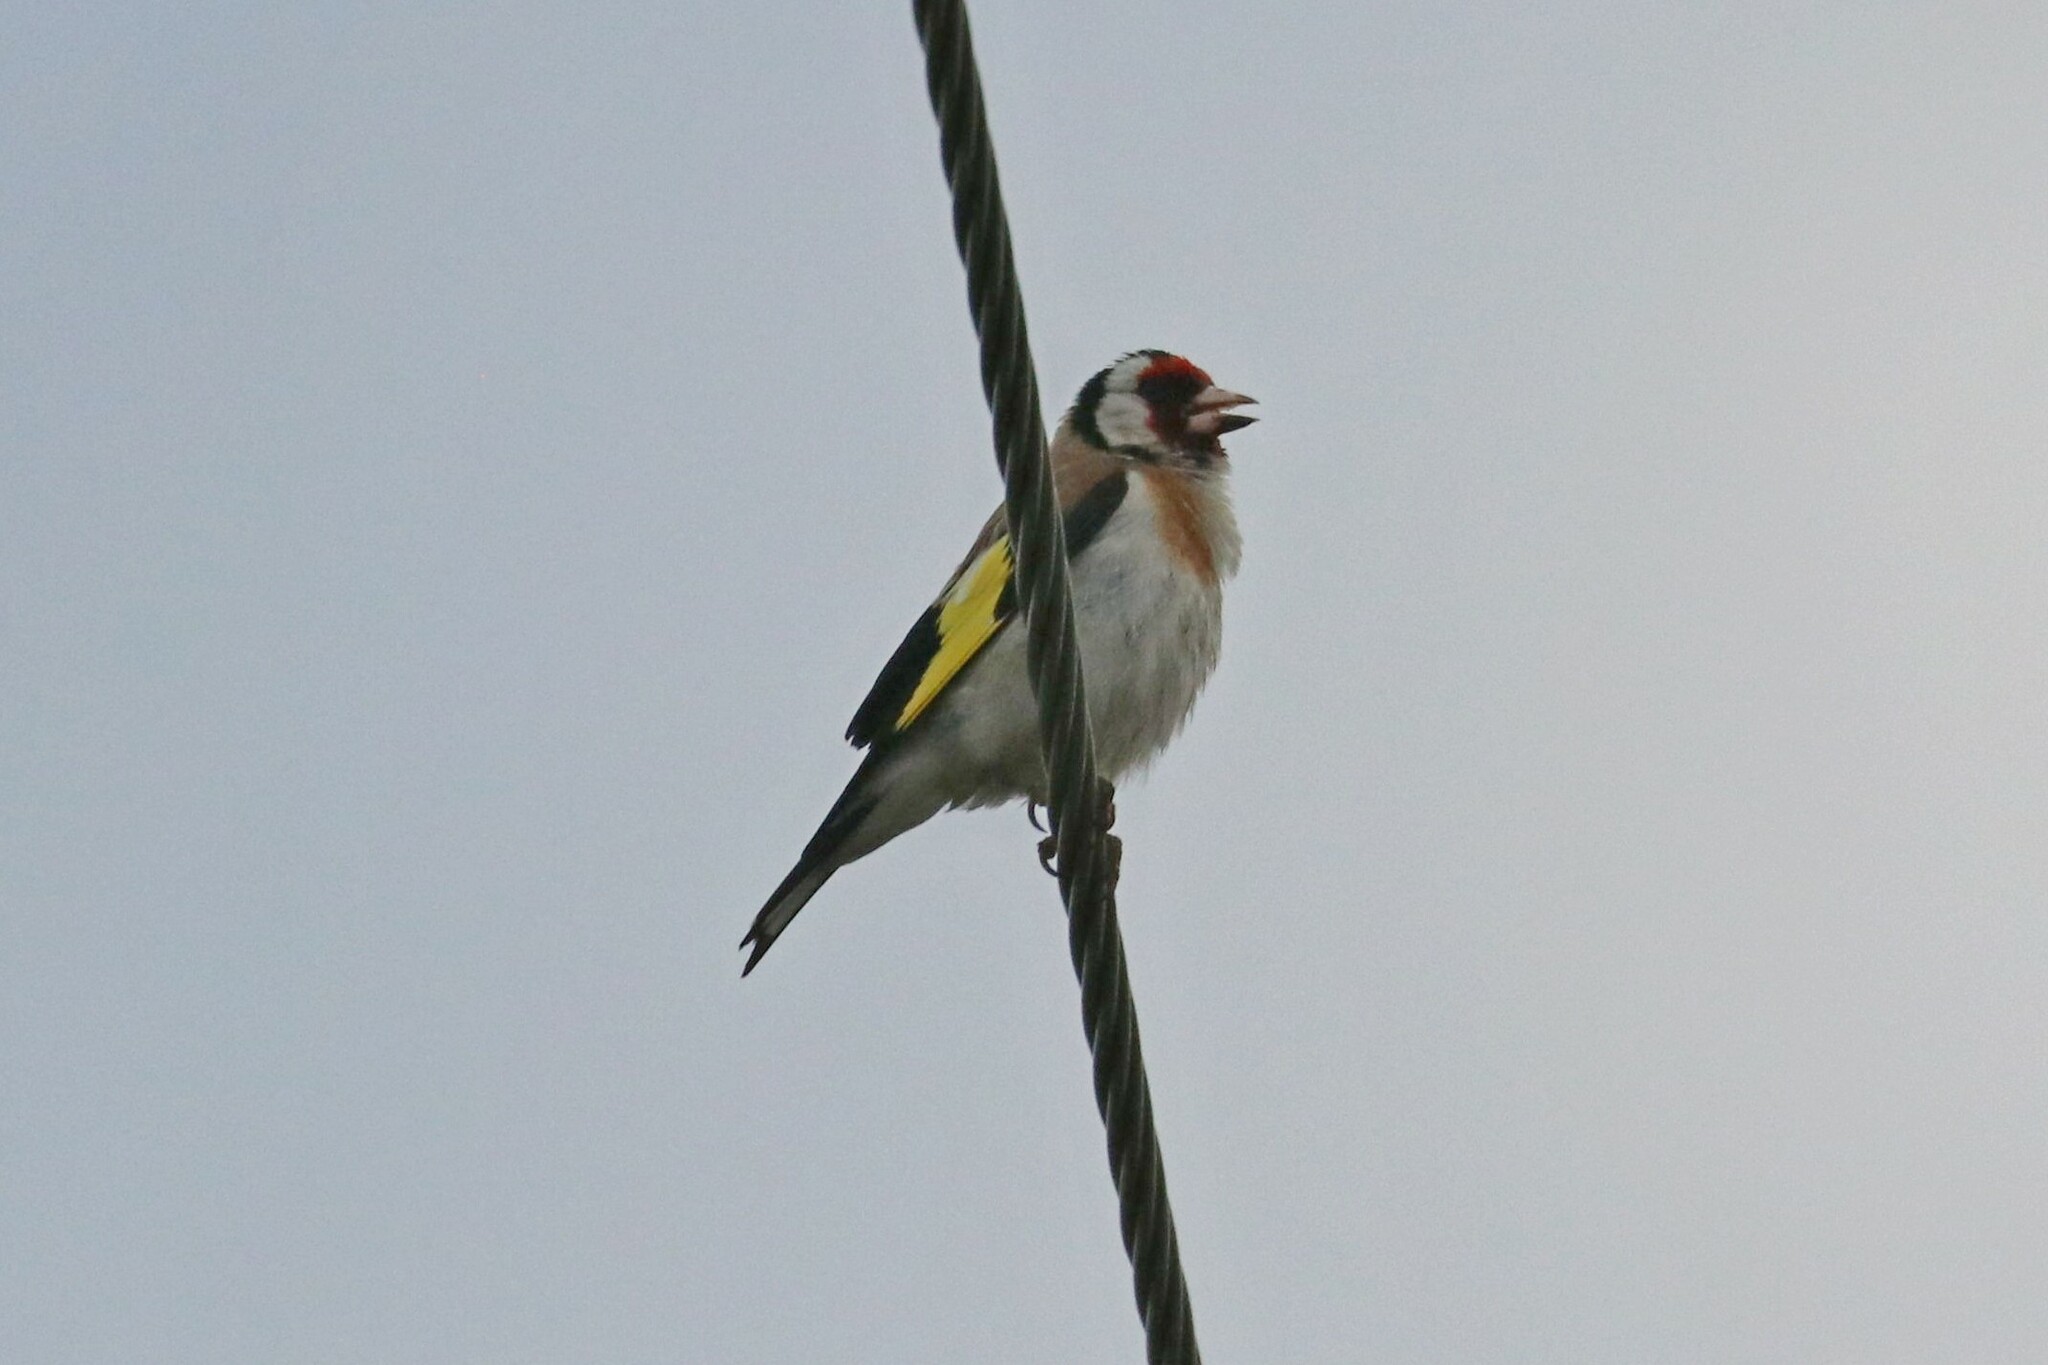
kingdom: Animalia
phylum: Chordata
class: Aves
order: Passeriformes
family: Fringillidae
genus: Carduelis
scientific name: Carduelis carduelis
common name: European goldfinch
